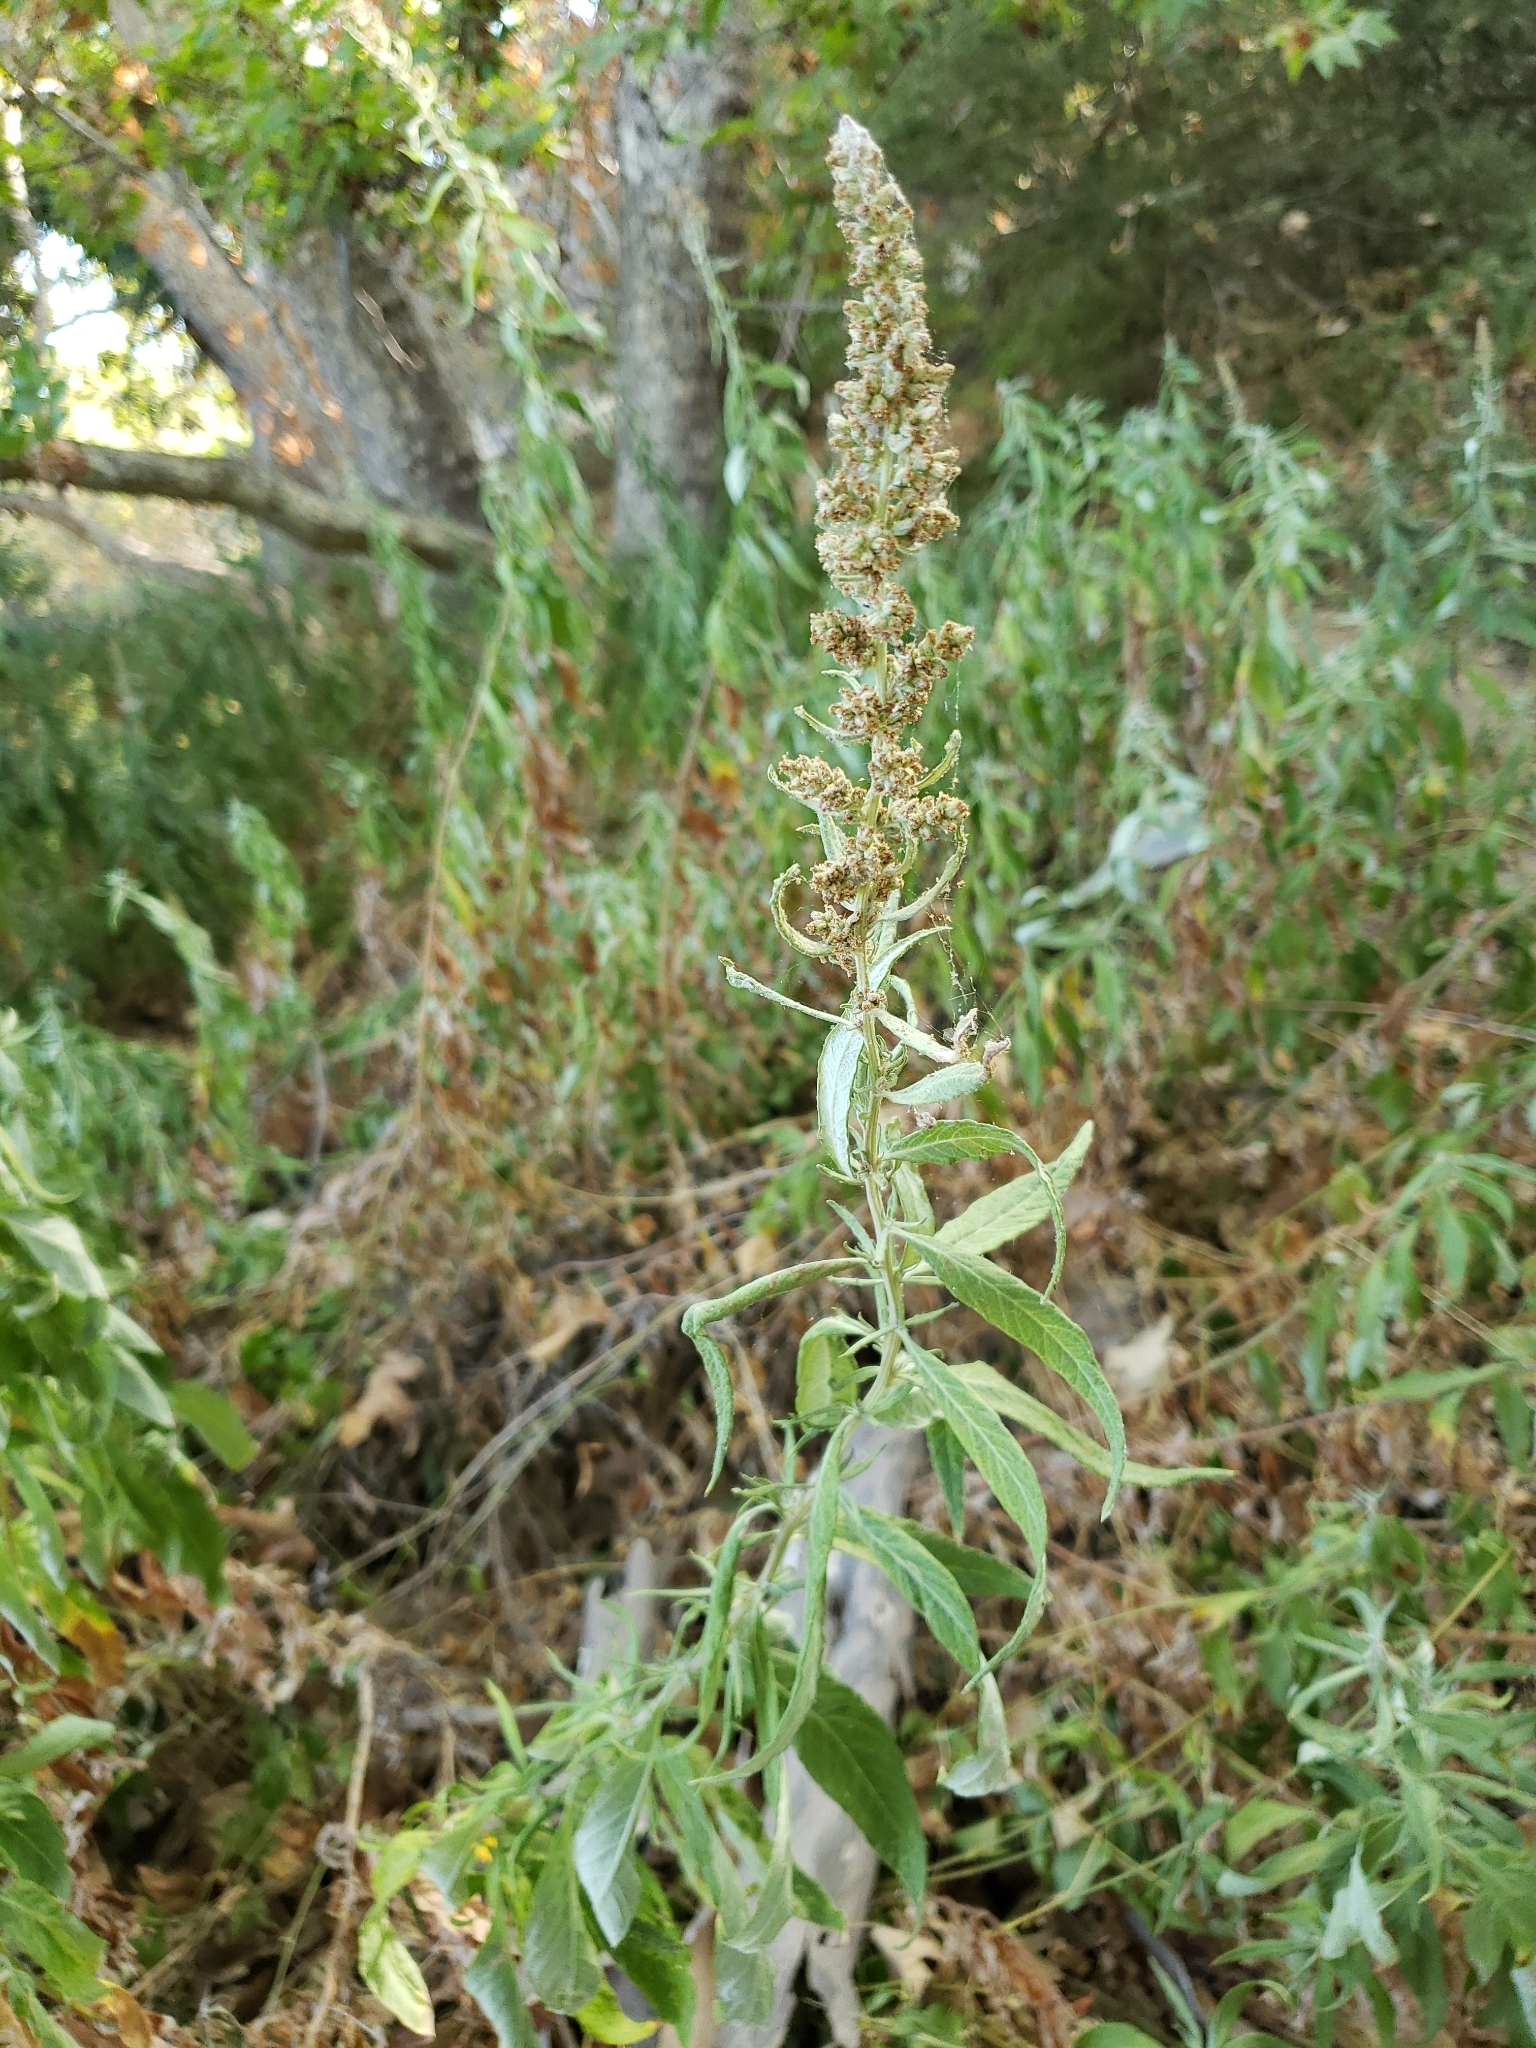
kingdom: Plantae
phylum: Tracheophyta
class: Magnoliopsida
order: Asterales
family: Asteraceae
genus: Artemisia
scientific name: Artemisia douglasiana
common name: Northwest mugwort
